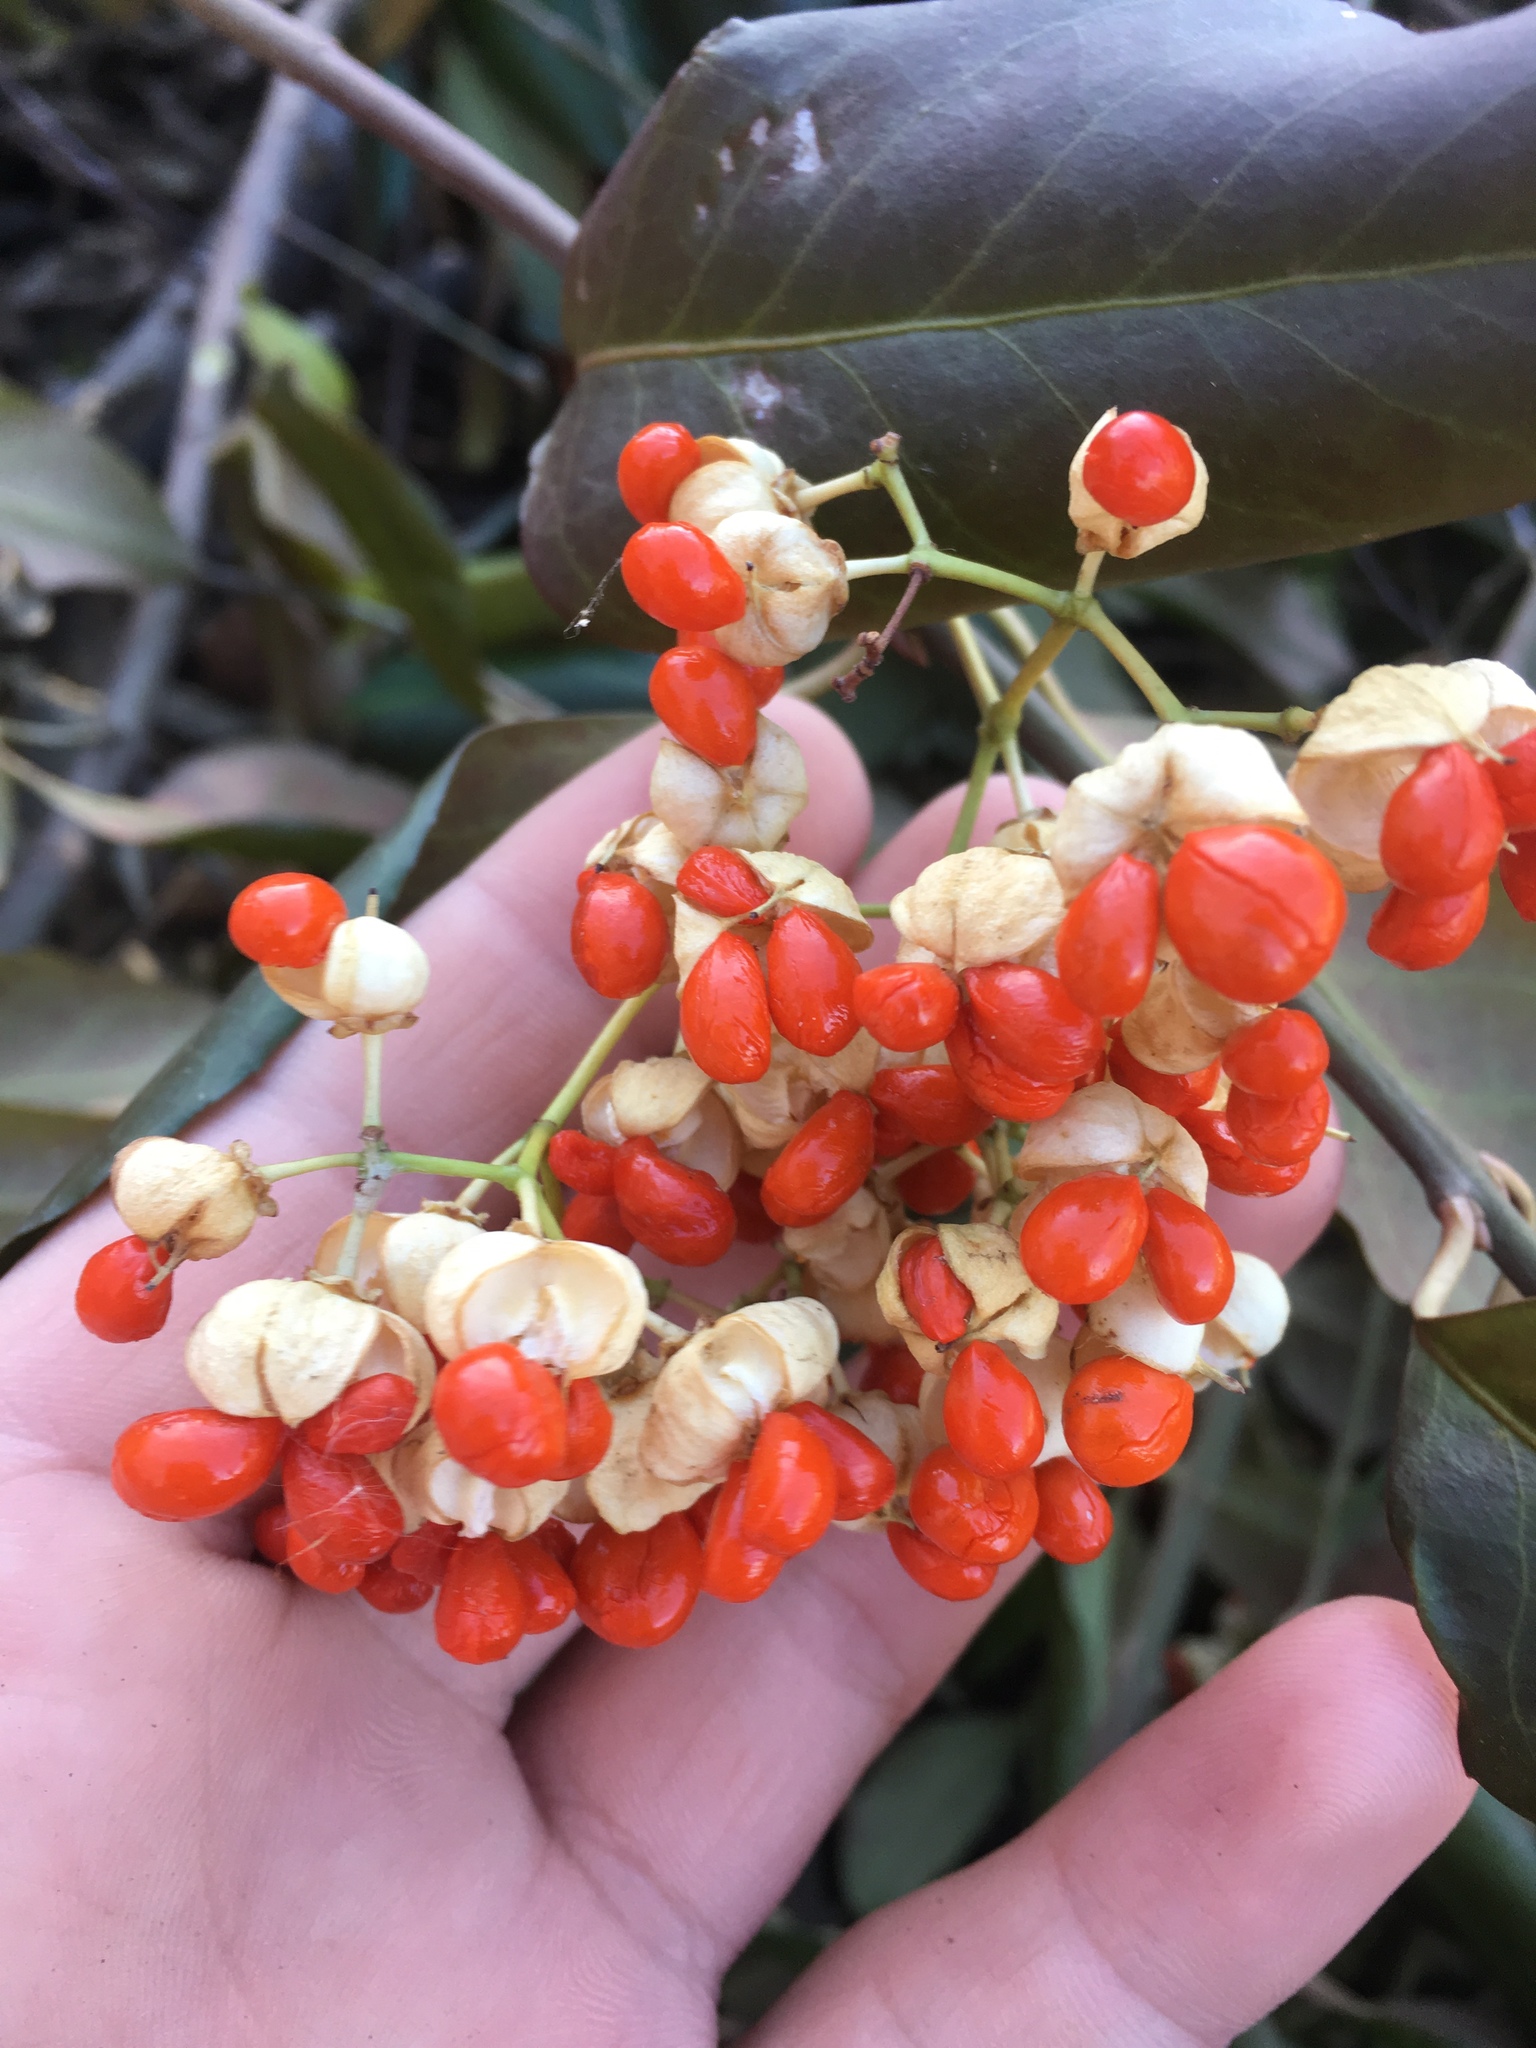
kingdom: Plantae
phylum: Tracheophyta
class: Magnoliopsida
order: Celastrales
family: Celastraceae
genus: Euonymus
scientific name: Euonymus fortunei
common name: Climbing euonymus
